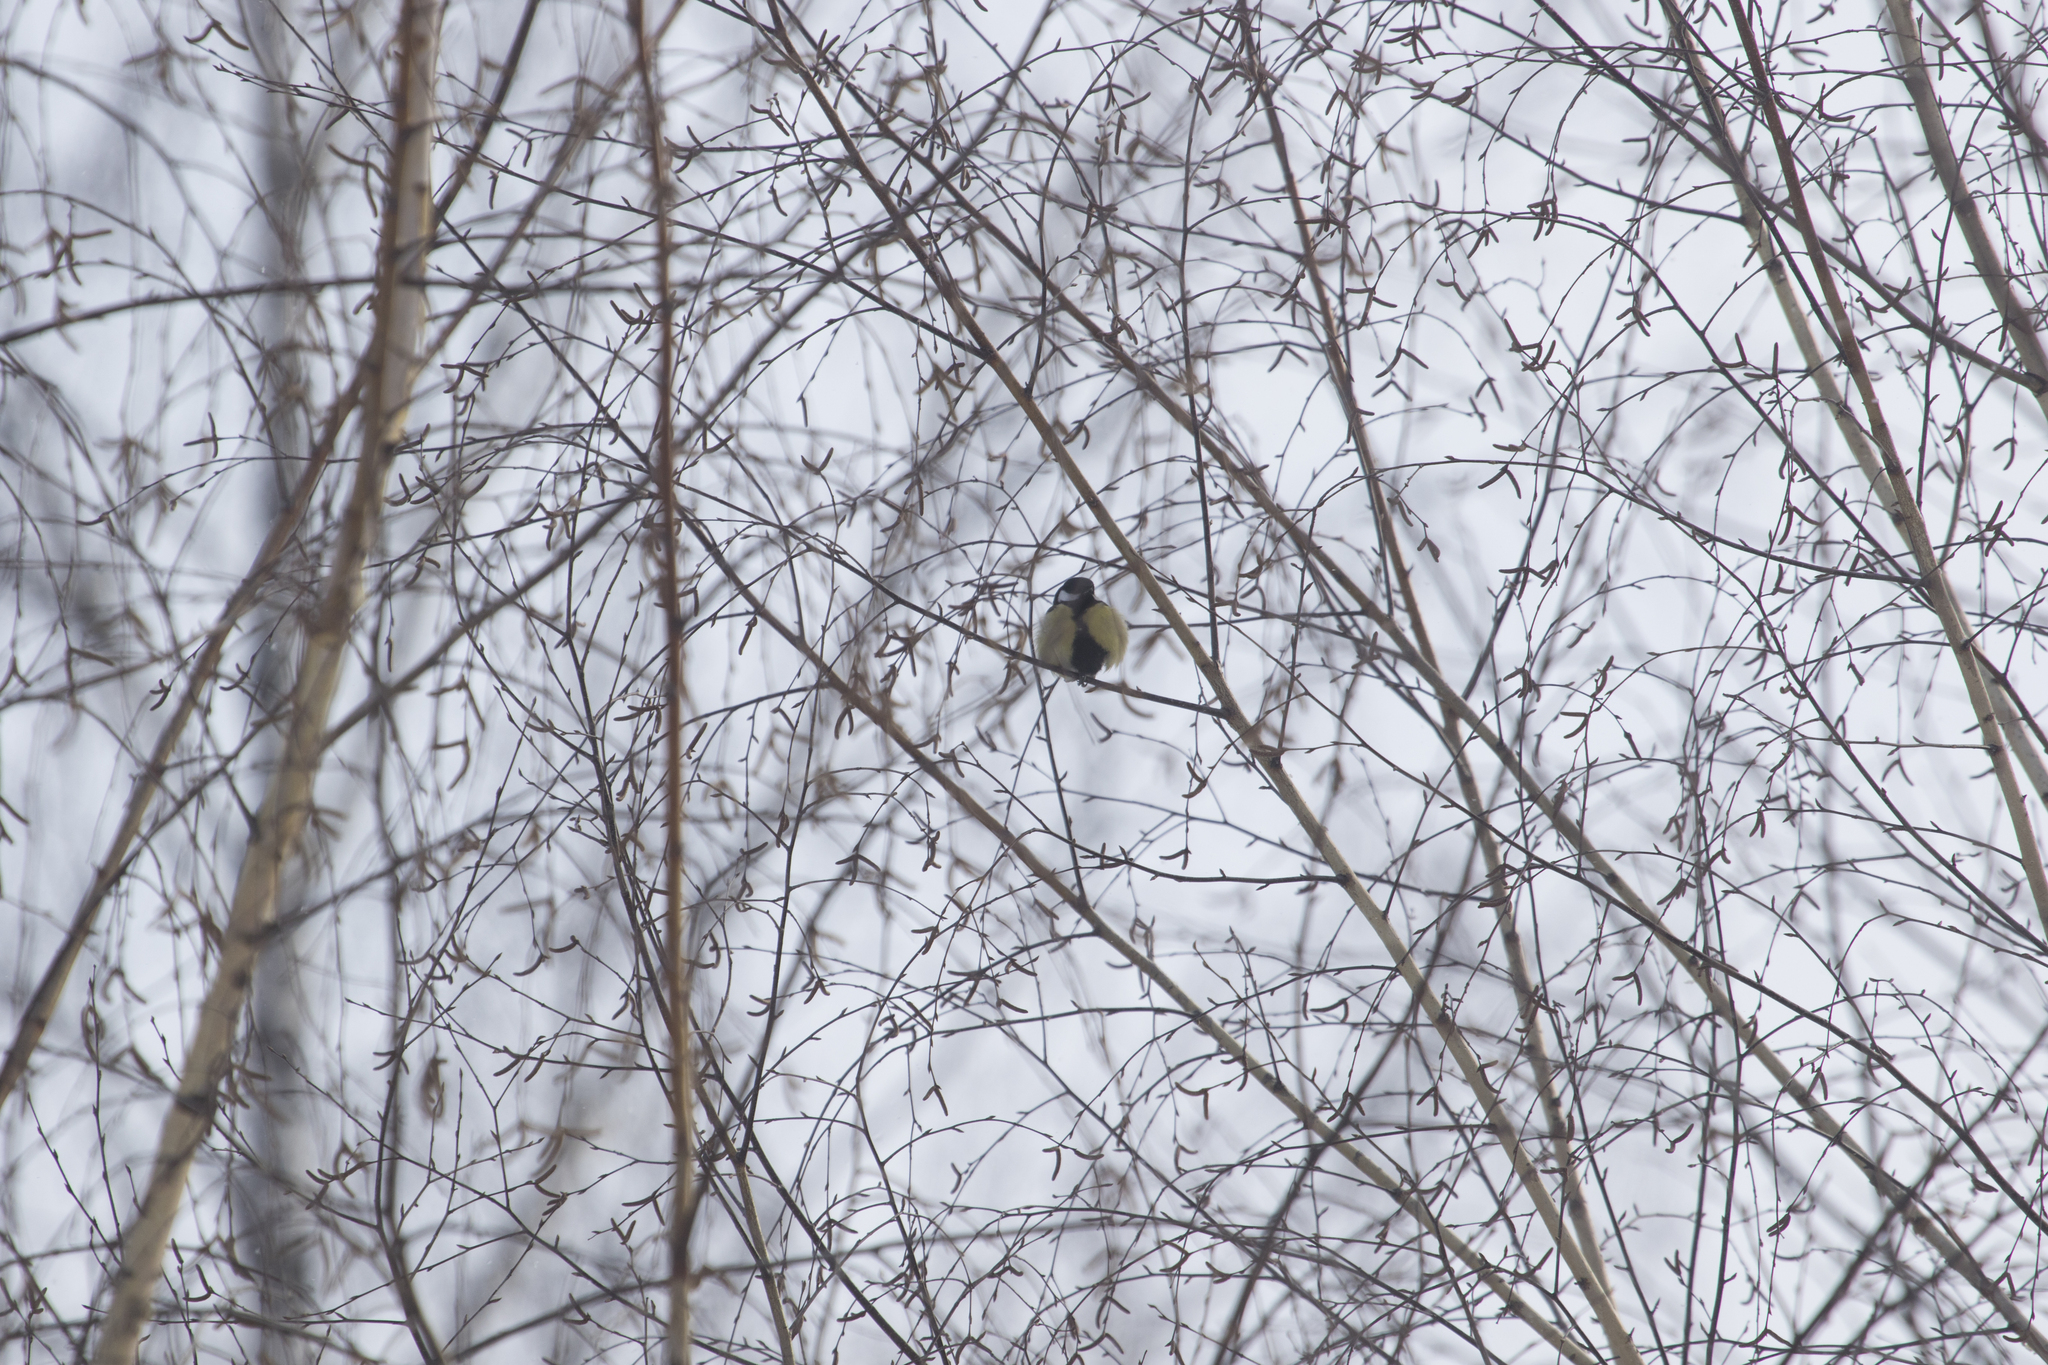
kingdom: Animalia
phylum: Chordata
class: Aves
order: Passeriformes
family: Paridae
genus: Parus
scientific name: Parus major
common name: Great tit
